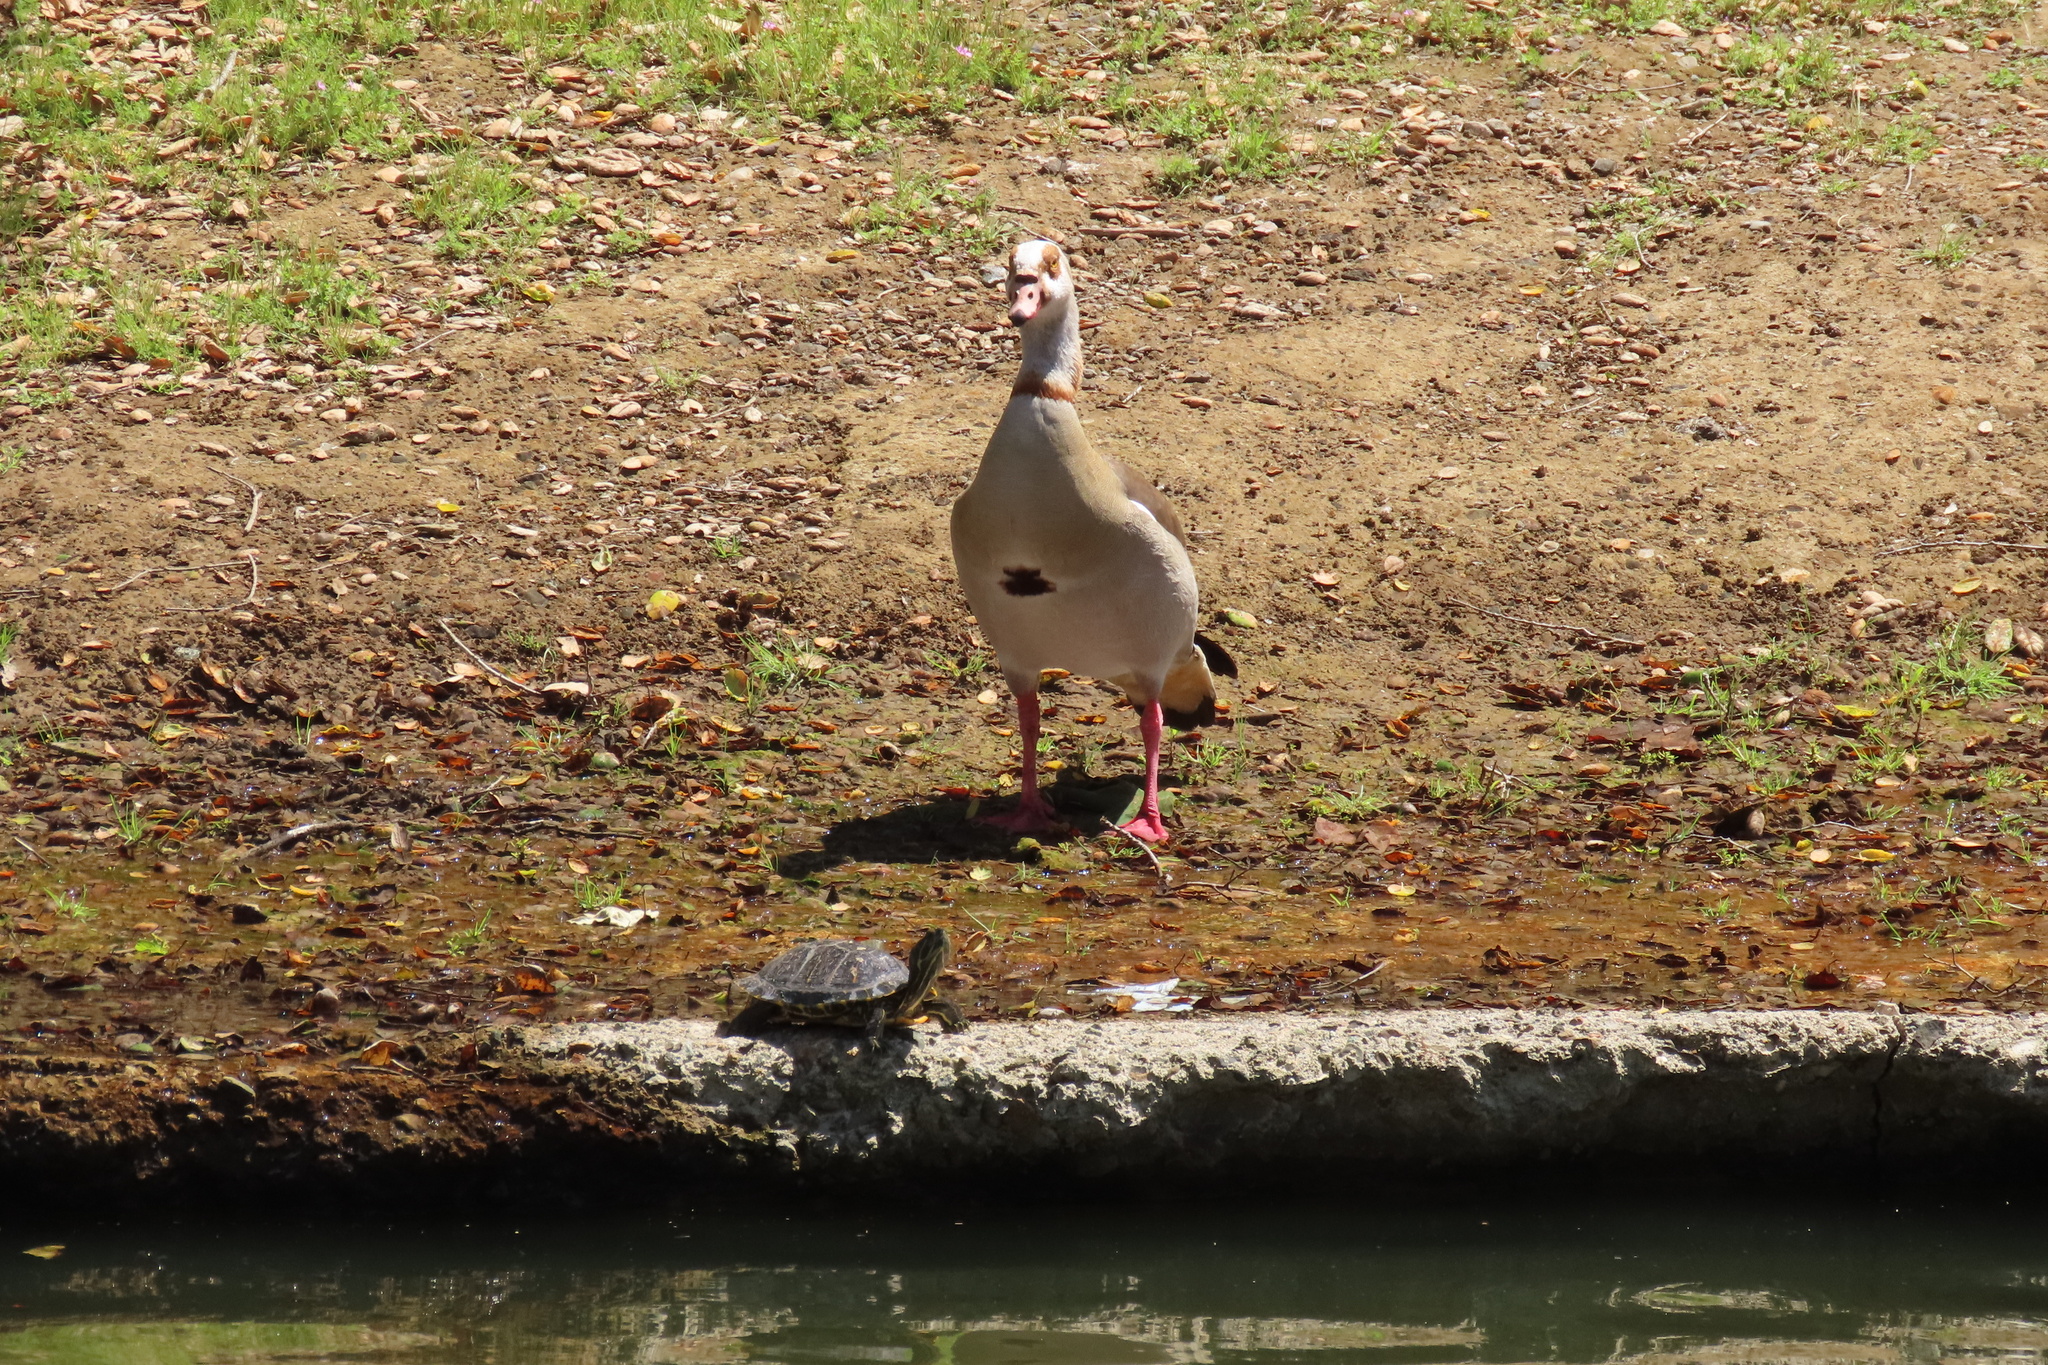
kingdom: Animalia
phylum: Chordata
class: Aves
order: Anseriformes
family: Anatidae
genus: Alopochen
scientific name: Alopochen aegyptiaca
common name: Egyptian goose
